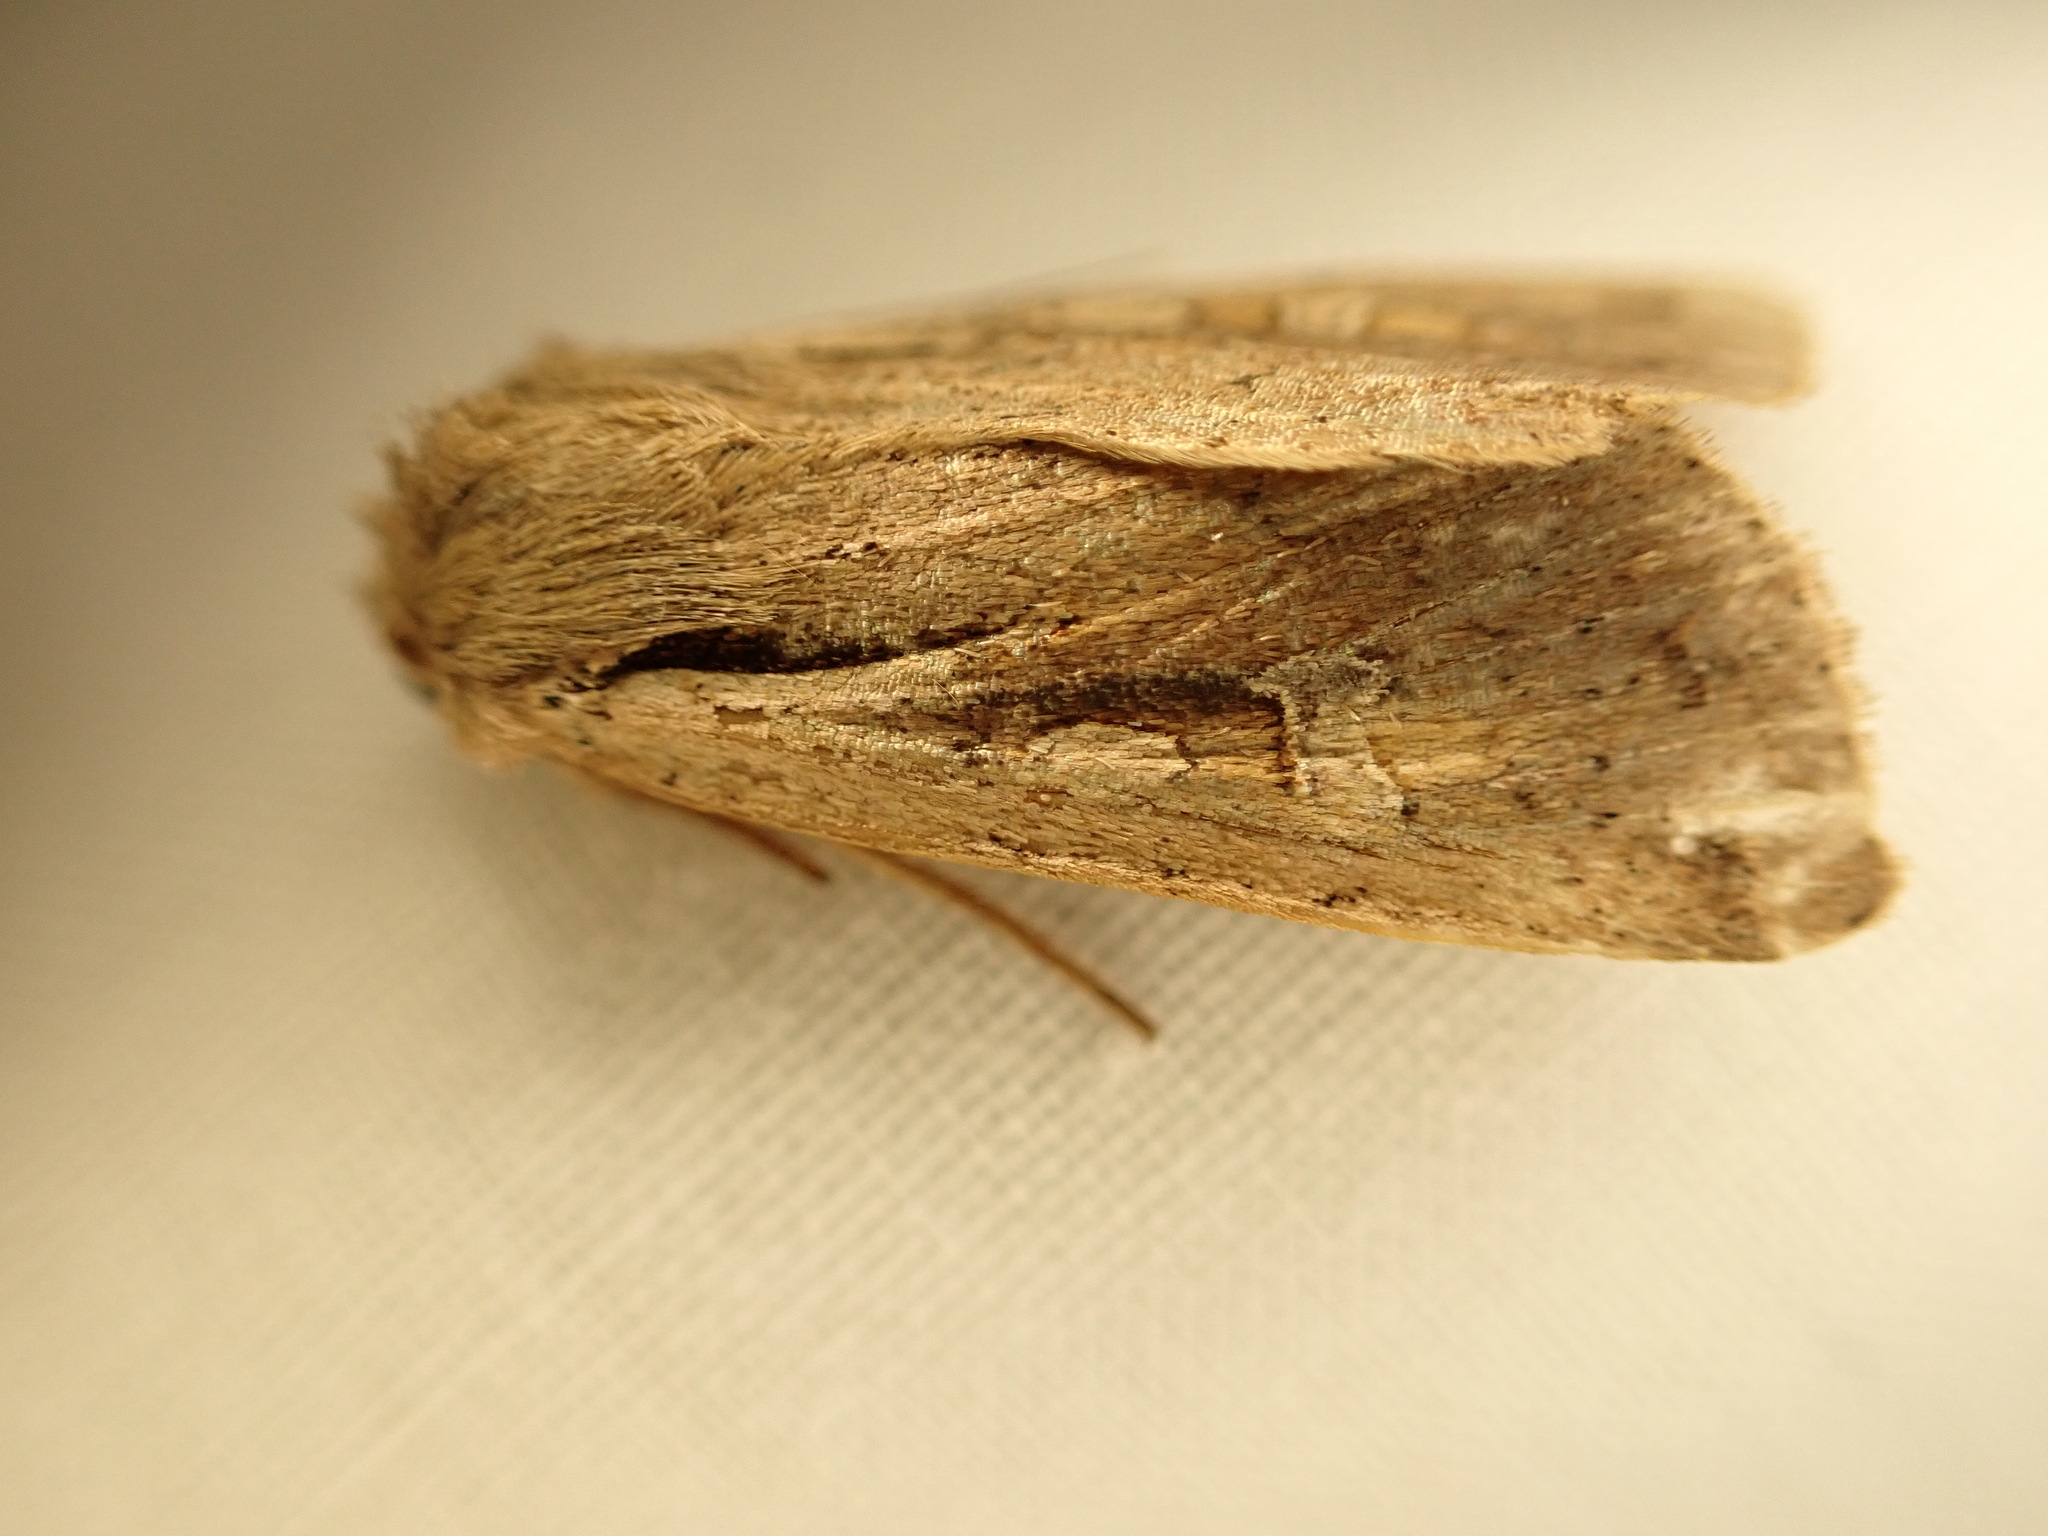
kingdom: Animalia
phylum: Arthropoda
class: Insecta
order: Lepidoptera
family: Noctuidae
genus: Ichneutica
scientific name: Ichneutica atristriga
